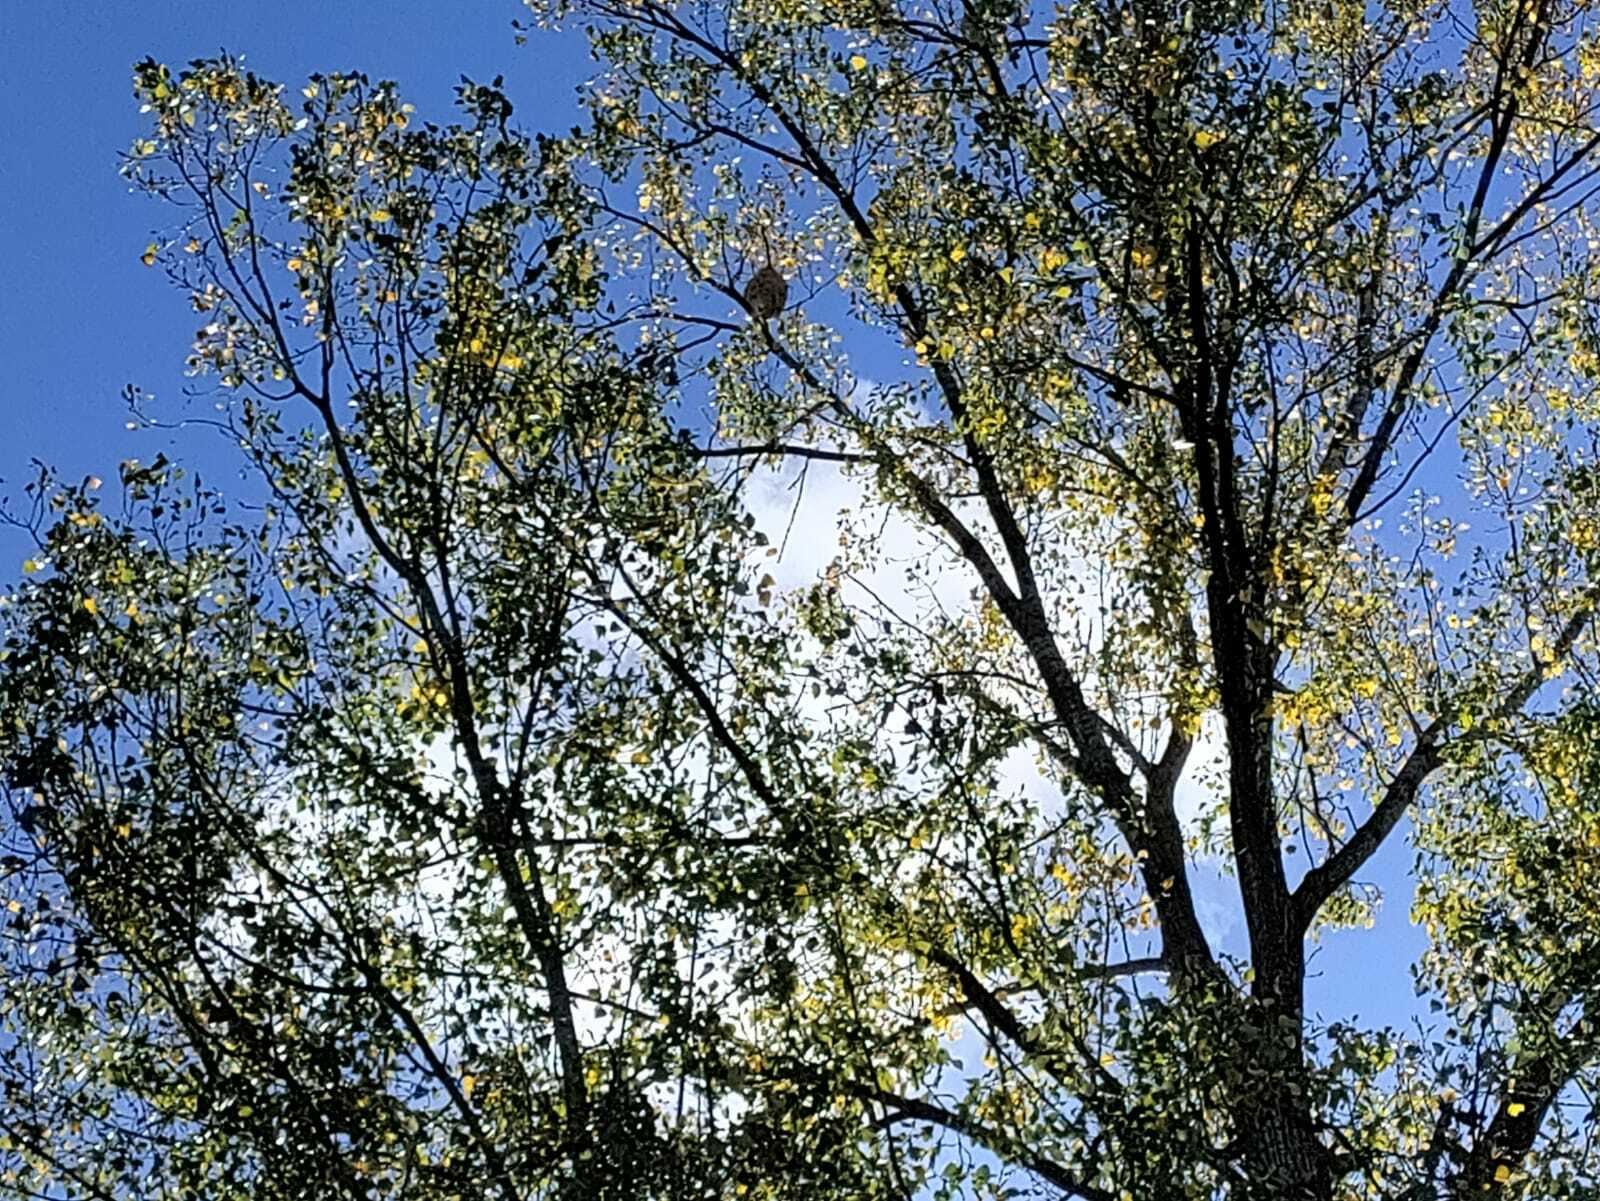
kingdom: Animalia
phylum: Arthropoda
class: Insecta
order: Hymenoptera
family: Vespidae
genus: Vespa
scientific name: Vespa velutina
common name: Asian hornet
